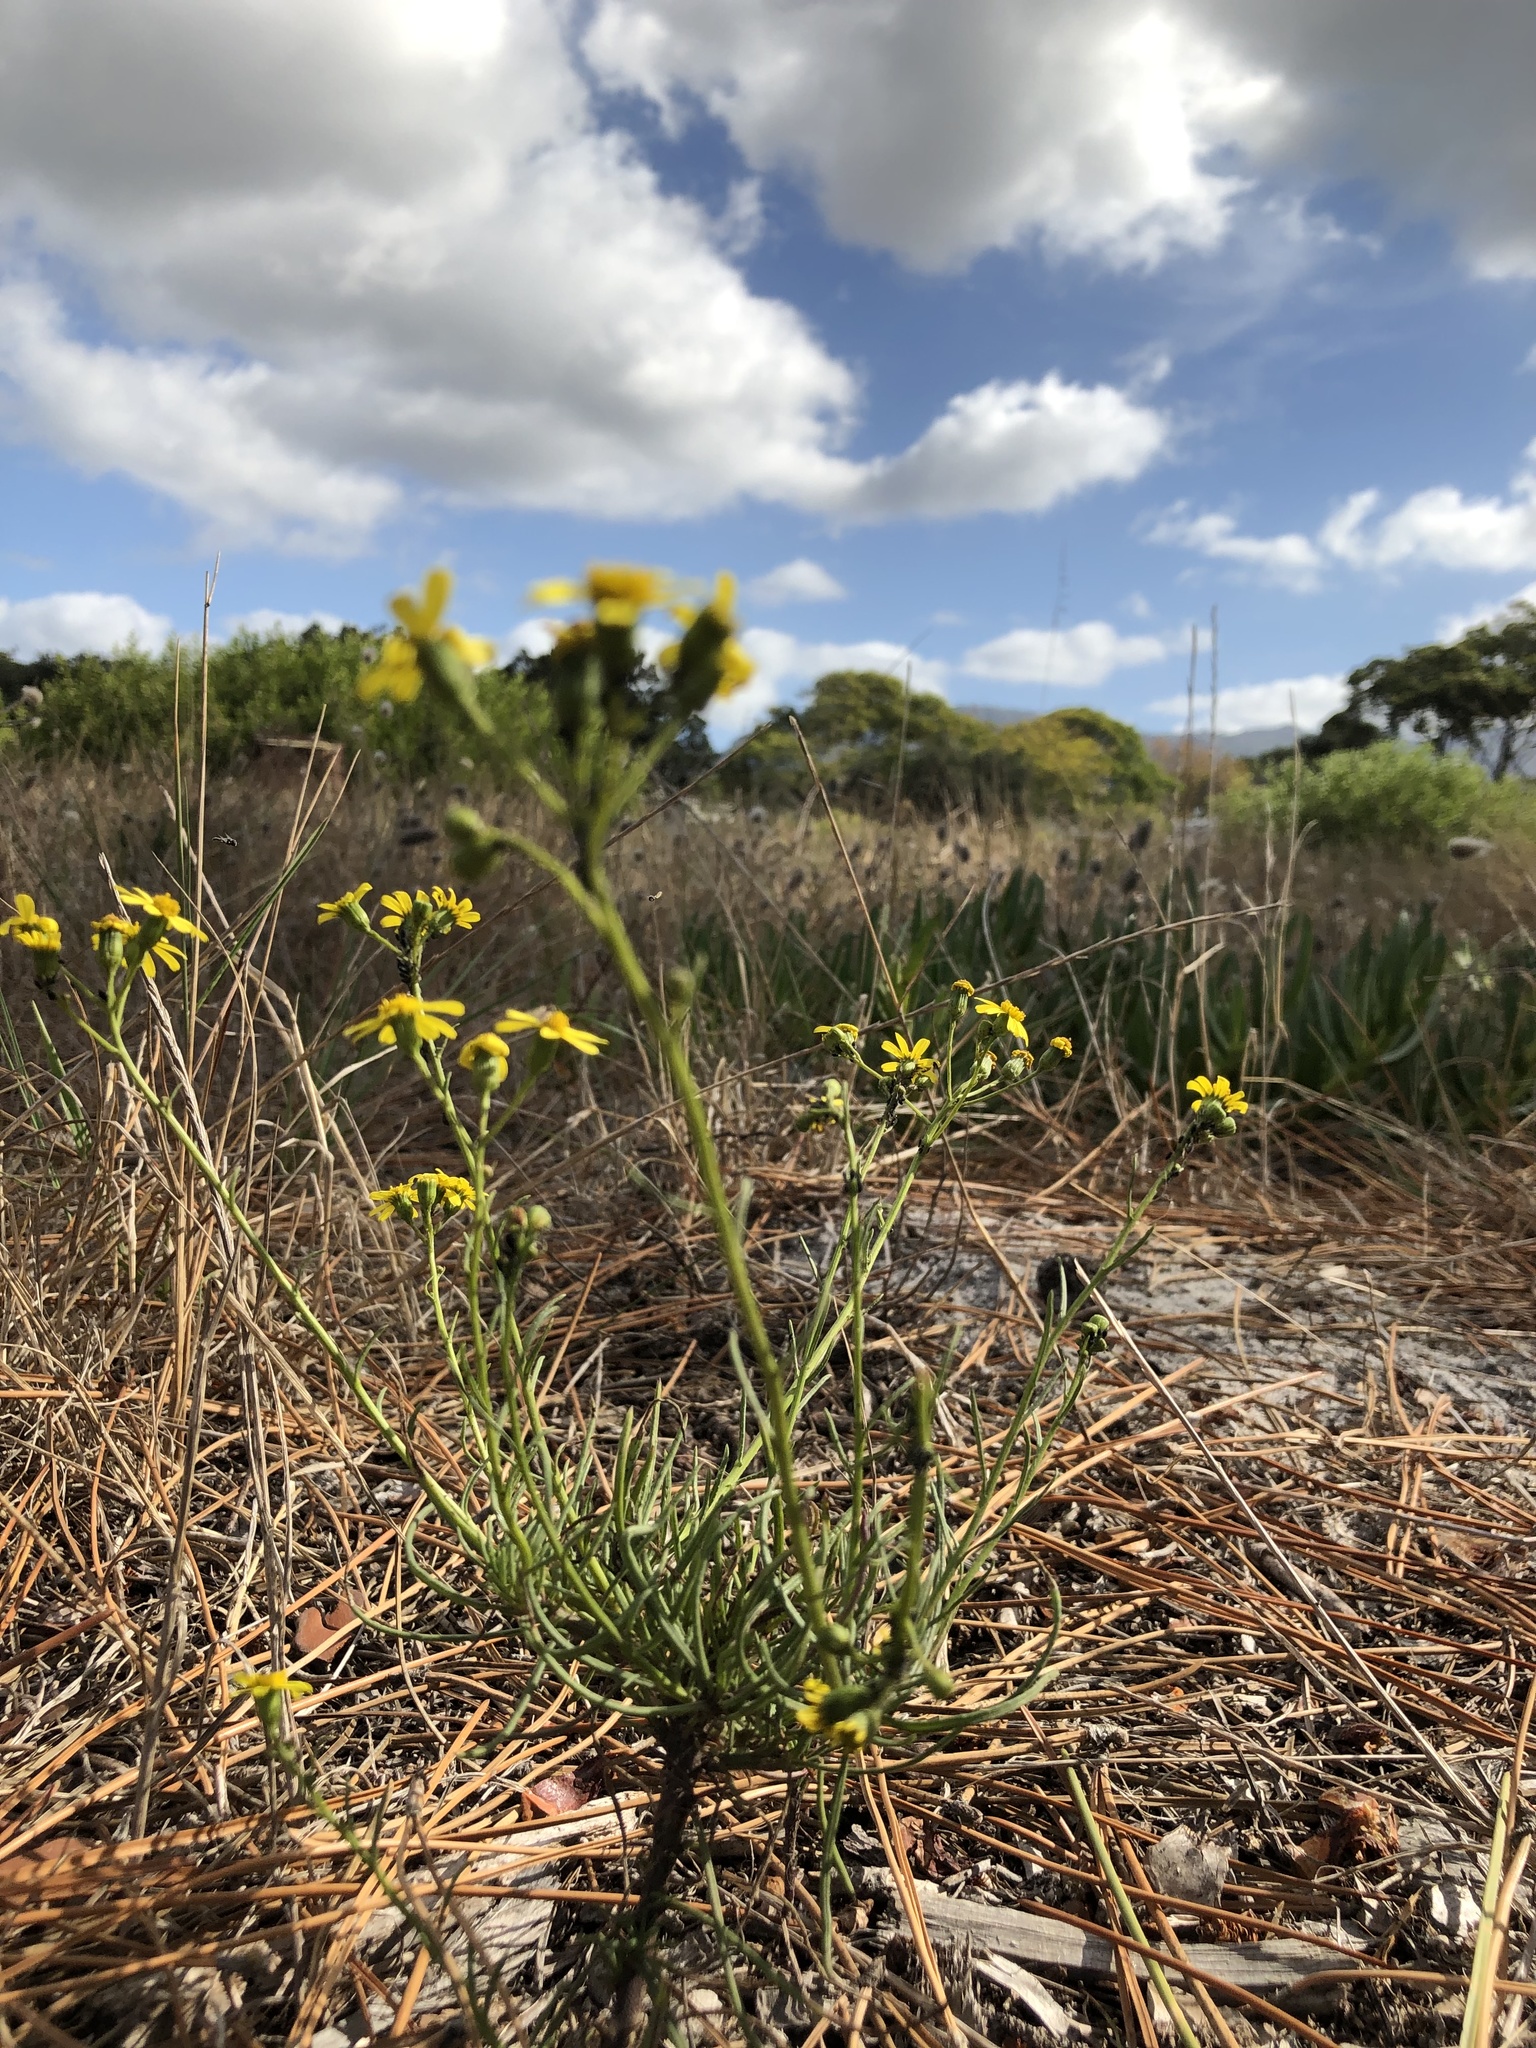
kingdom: Plantae
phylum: Tracheophyta
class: Magnoliopsida
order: Asterales
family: Asteraceae
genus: Senecio
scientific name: Senecio burchellii
